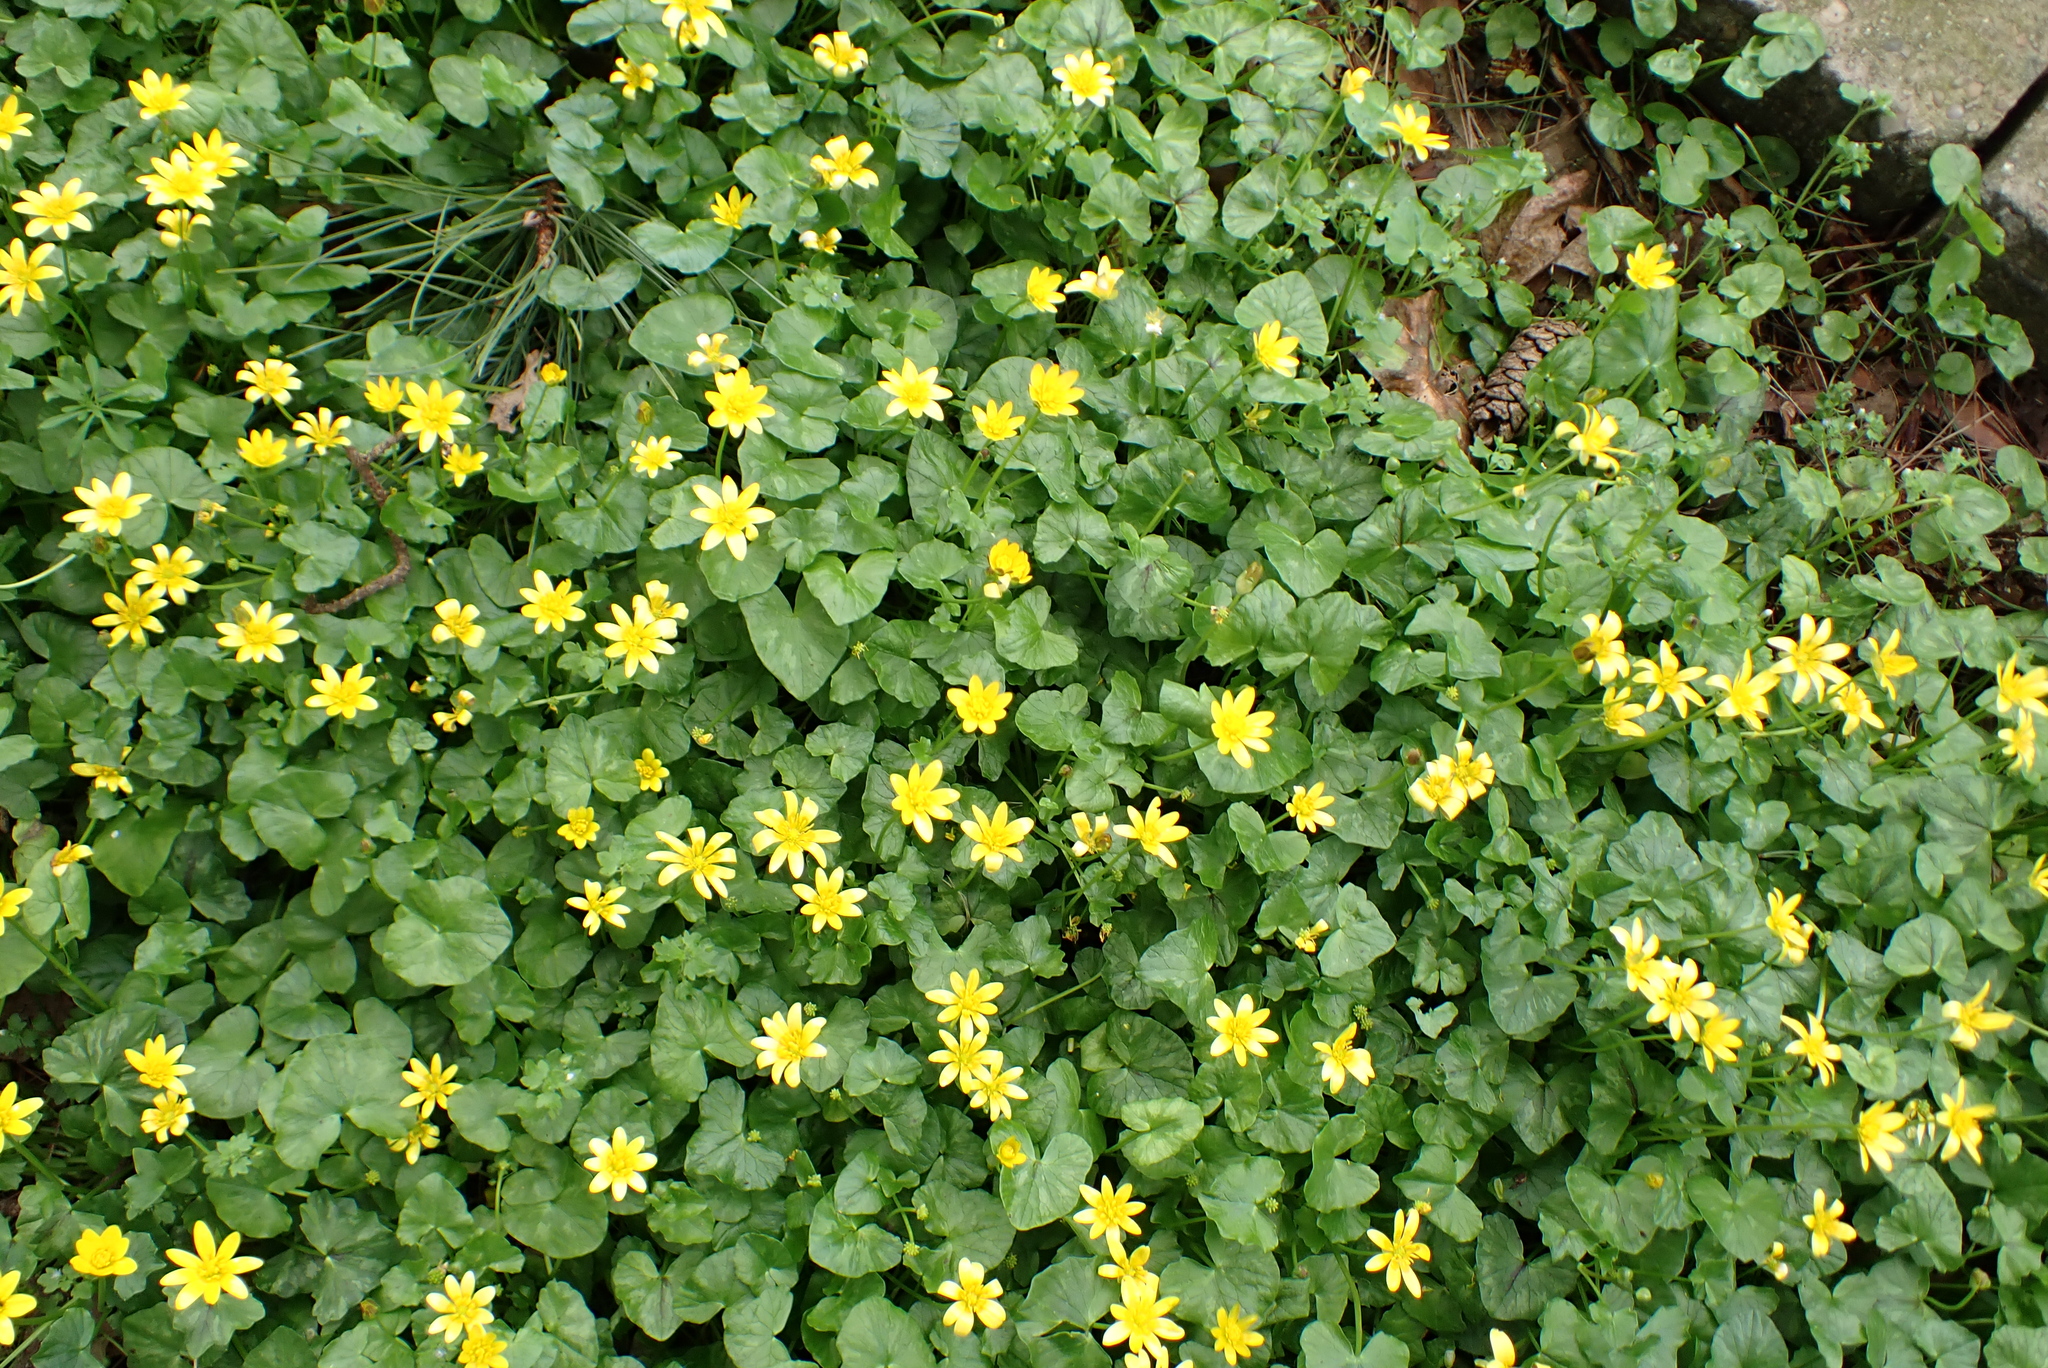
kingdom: Plantae
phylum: Tracheophyta
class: Magnoliopsida
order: Ranunculales
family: Ranunculaceae
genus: Ficaria
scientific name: Ficaria verna
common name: Lesser celandine
